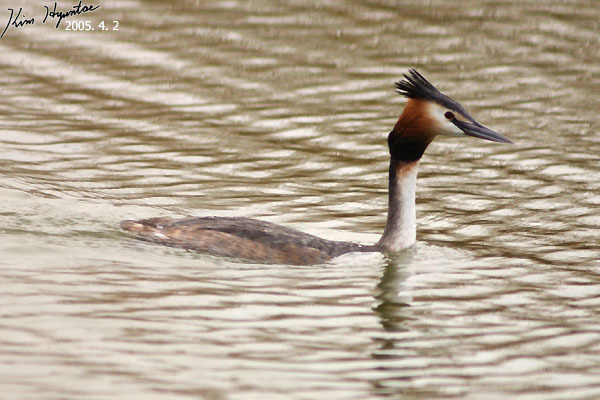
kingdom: Animalia
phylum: Chordata
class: Aves
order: Podicipediformes
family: Podicipedidae
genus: Podiceps
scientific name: Podiceps cristatus
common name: Great crested grebe
